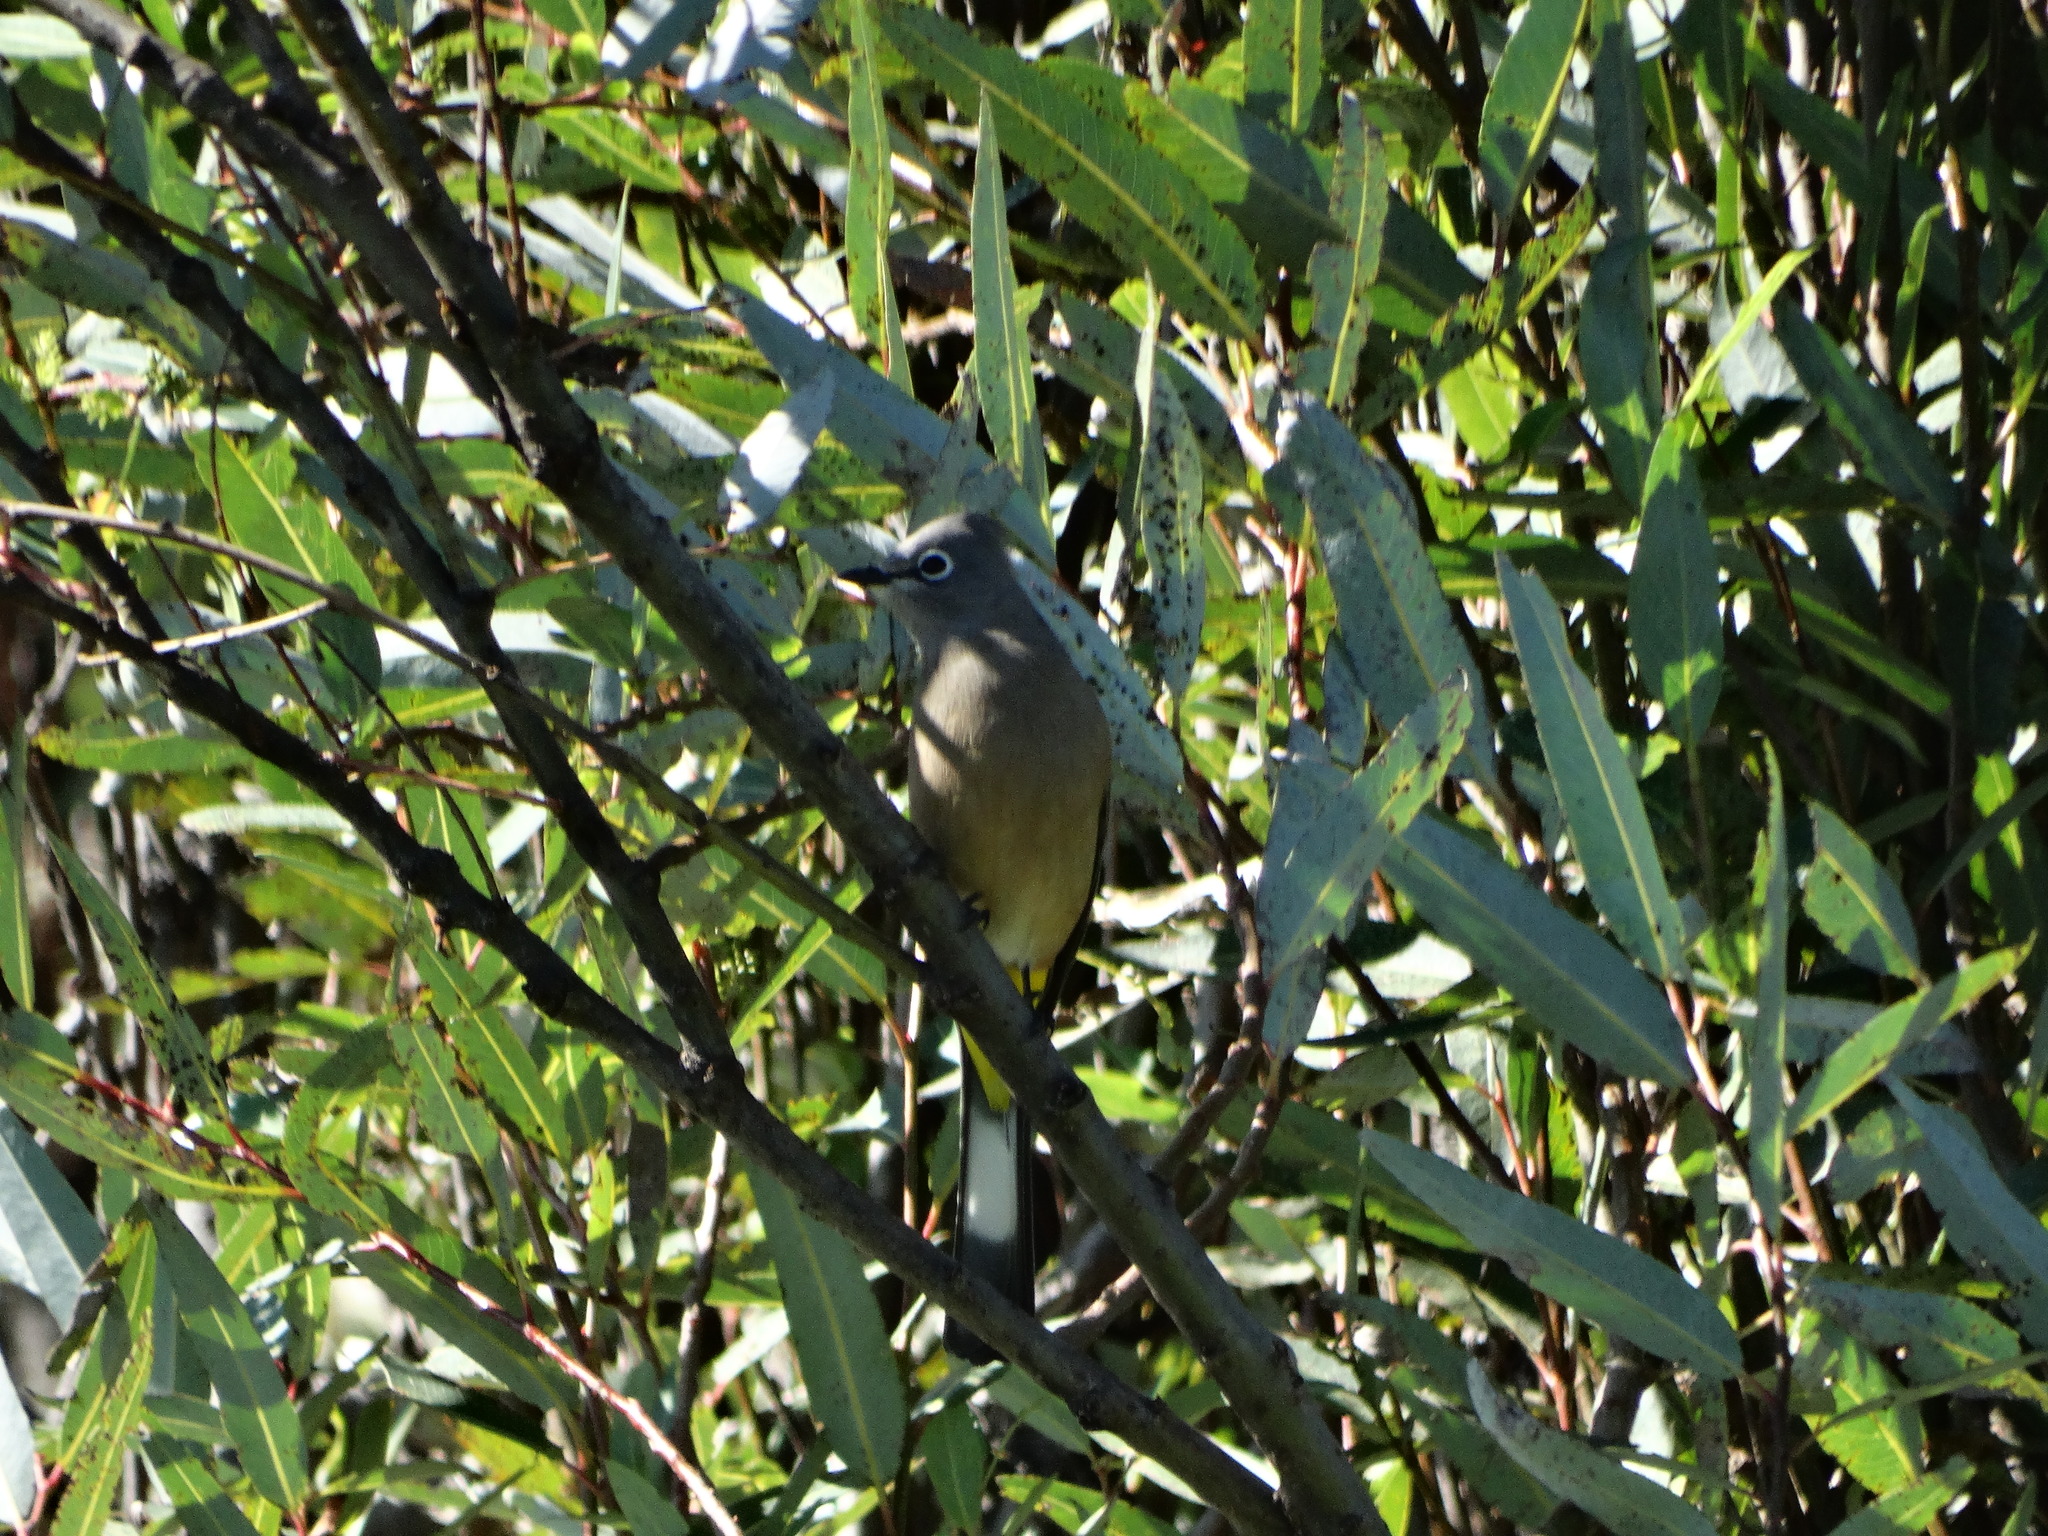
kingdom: Animalia
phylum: Chordata
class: Aves
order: Passeriformes
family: Ptilogonatidae
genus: Ptilogonys
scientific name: Ptilogonys cinereus
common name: Gray silky-flycatcher
